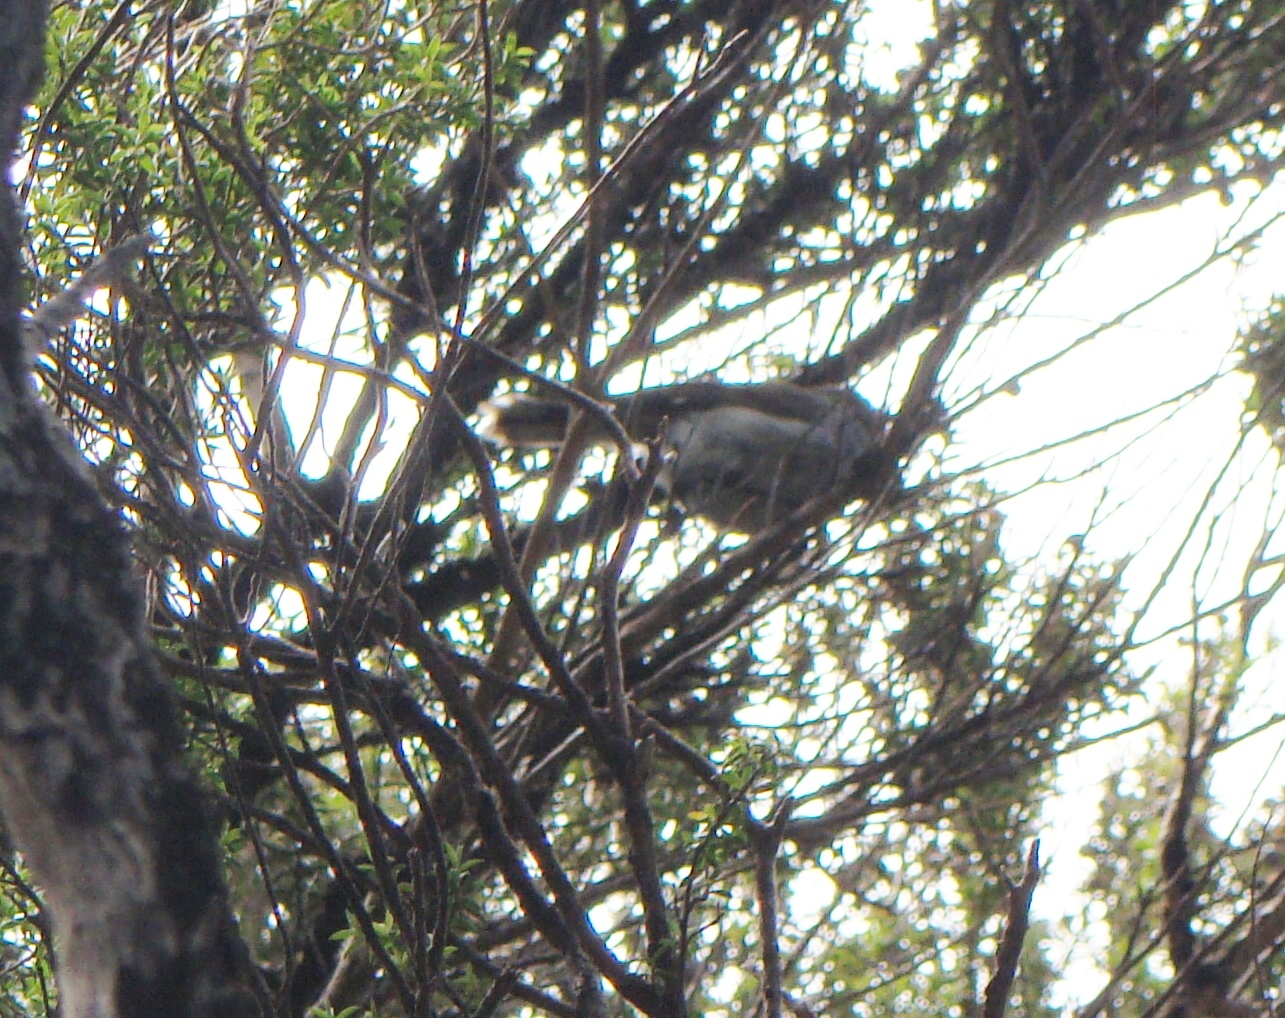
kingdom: Animalia
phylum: Chordata
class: Aves
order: Passeriformes
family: Acanthizidae
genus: Gerygone
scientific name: Gerygone igata
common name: Grey gerygone
